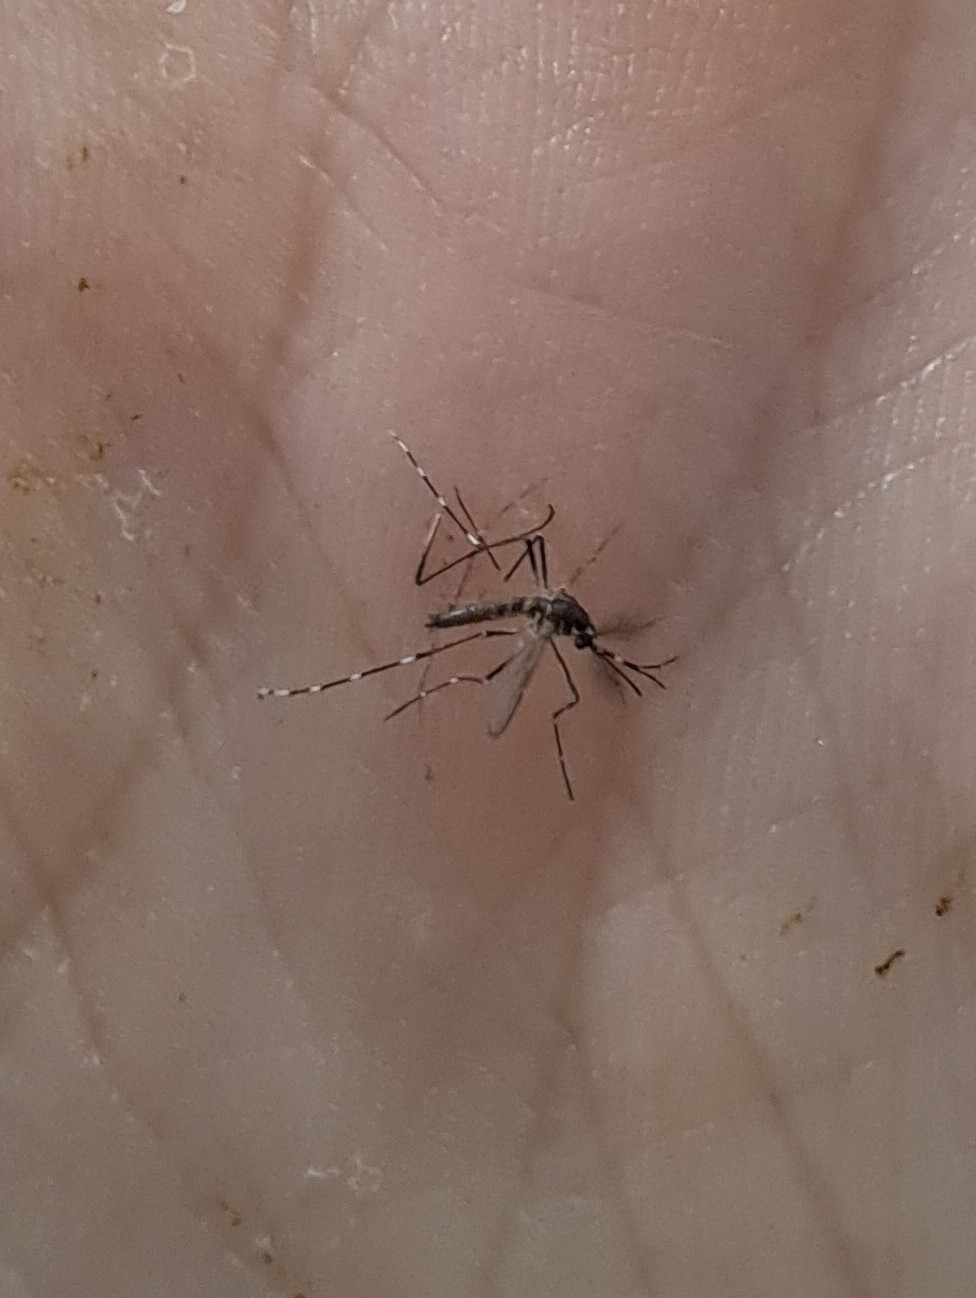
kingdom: Animalia
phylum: Arthropoda
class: Insecta
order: Diptera
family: Culicidae
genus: Aedes
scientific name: Aedes aegypti
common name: Yellow fever mosquito
